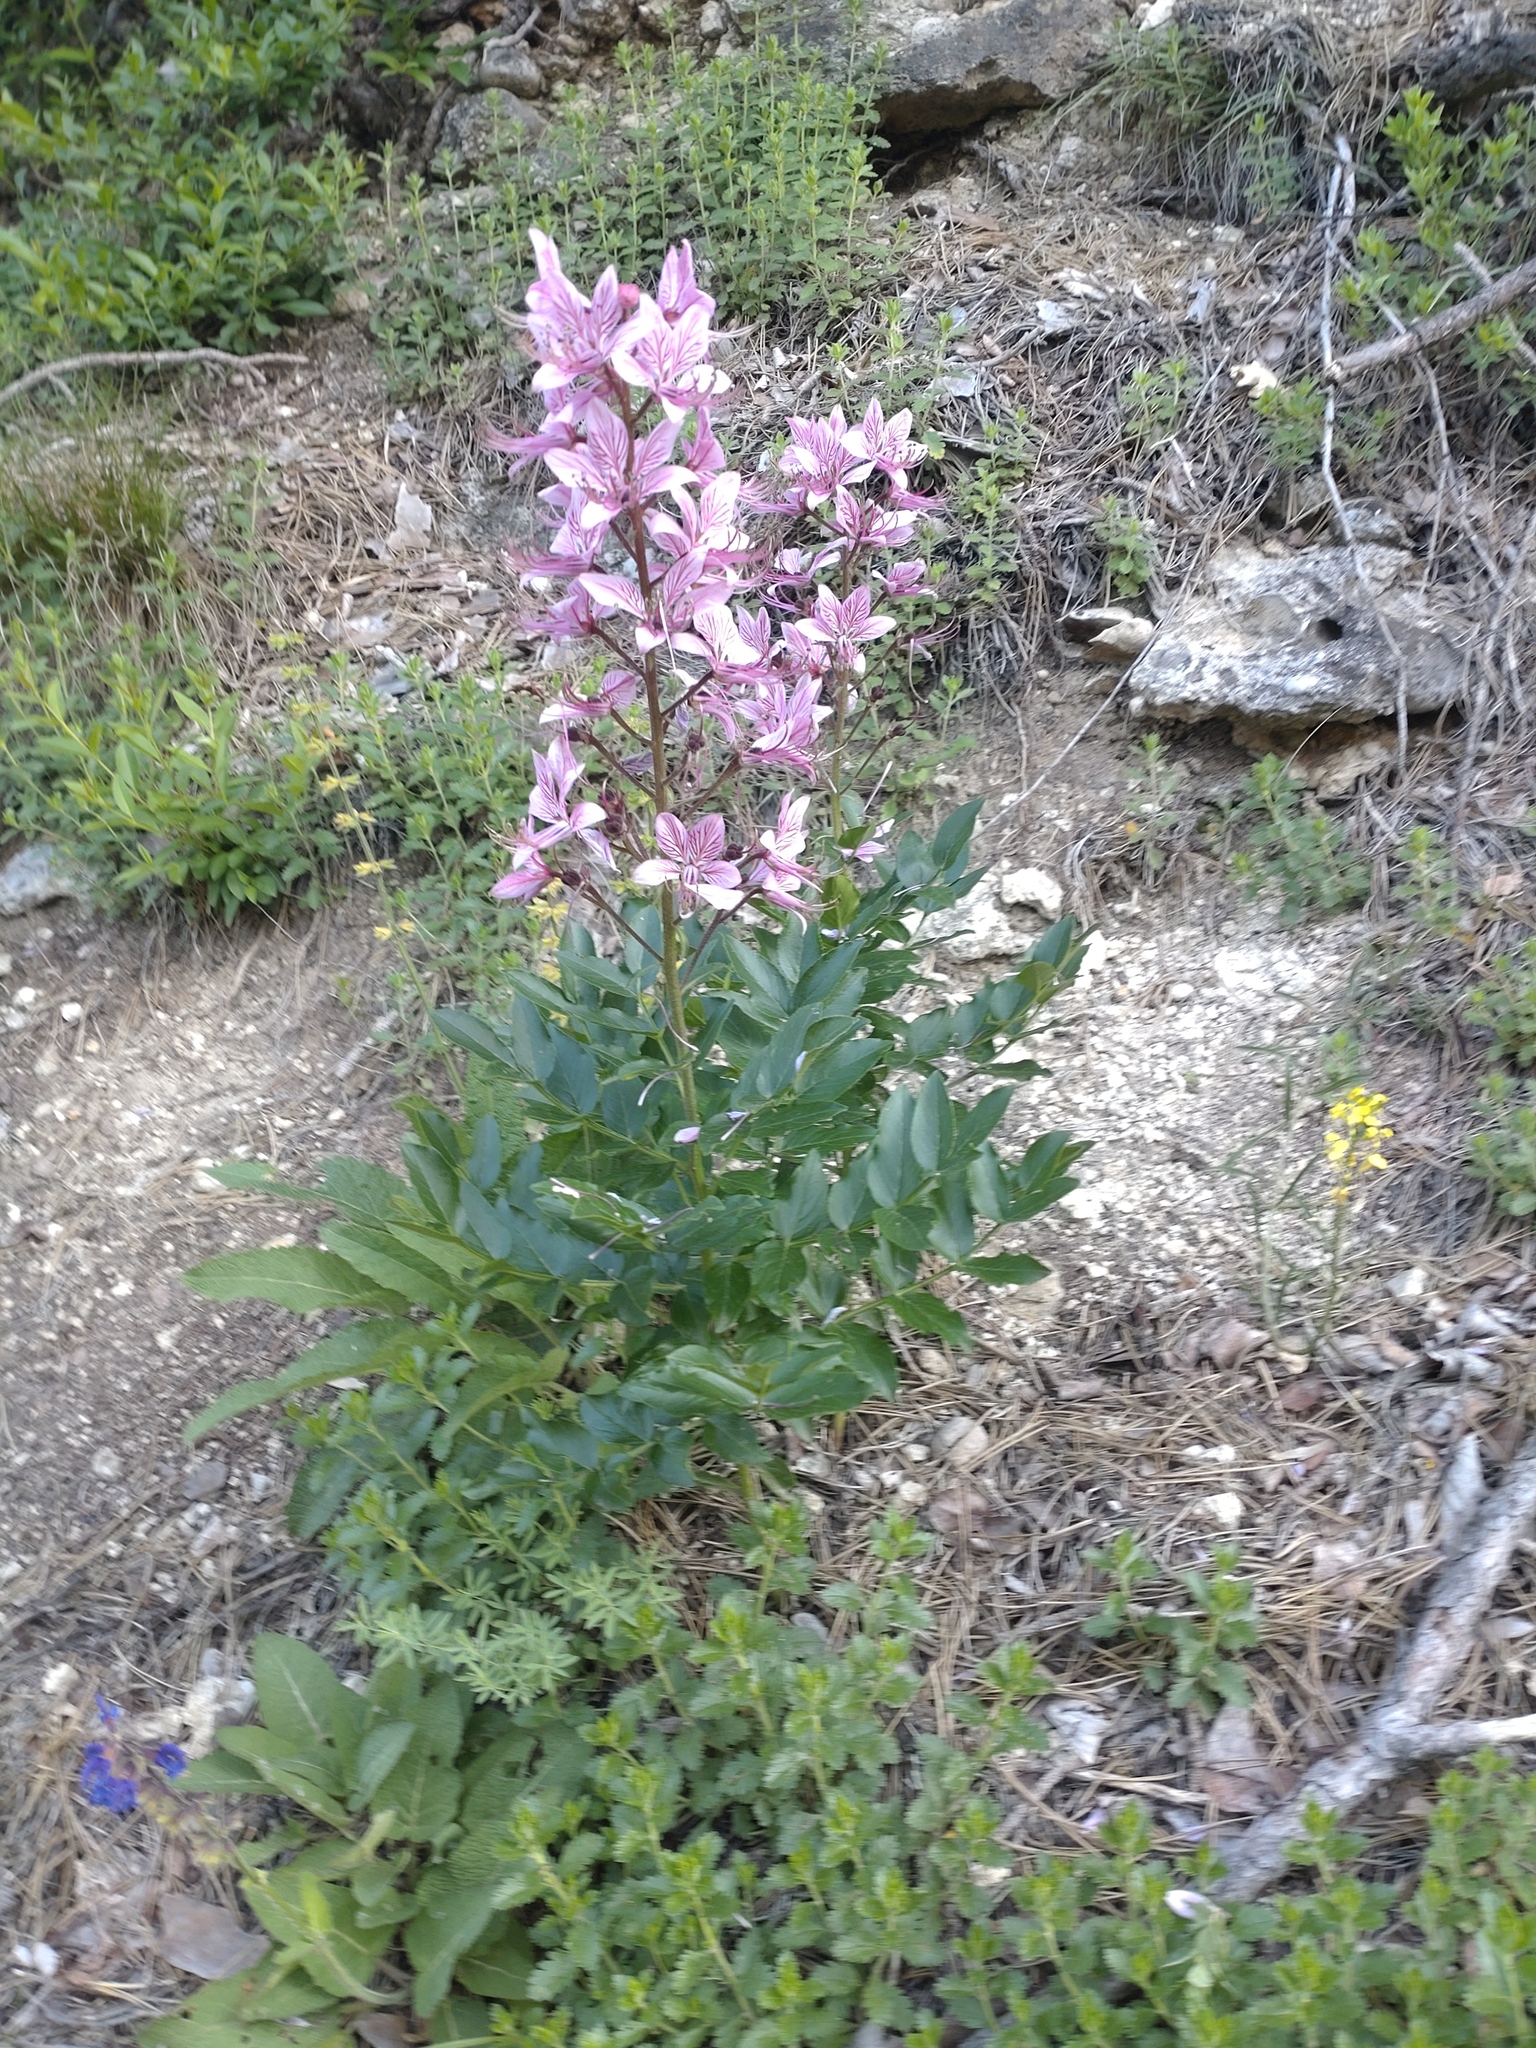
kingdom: Plantae
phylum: Tracheophyta
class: Magnoliopsida
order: Sapindales
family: Rutaceae
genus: Dictamnus
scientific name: Dictamnus albus
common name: Gasplant
